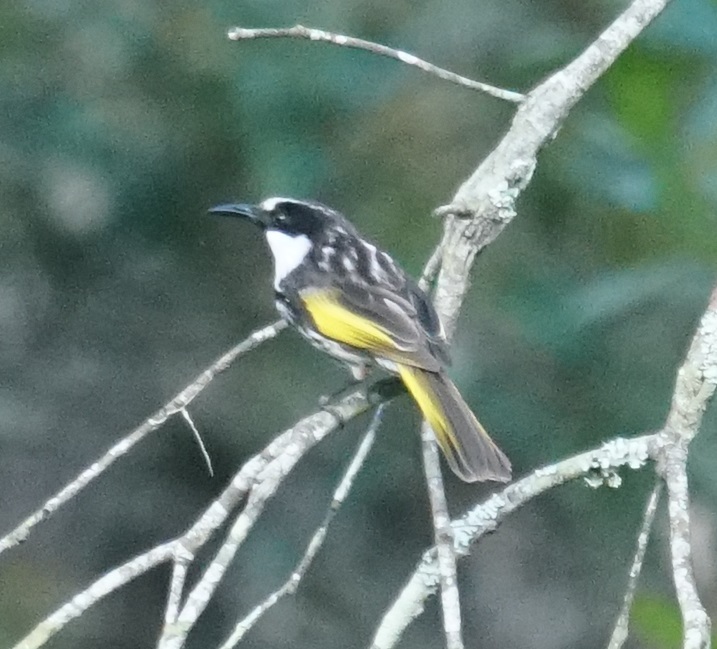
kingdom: Animalia
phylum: Chordata
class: Aves
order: Passeriformes
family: Meliphagidae
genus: Phylidonyris
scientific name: Phylidonyris niger
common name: White-cheeked honeyeater
